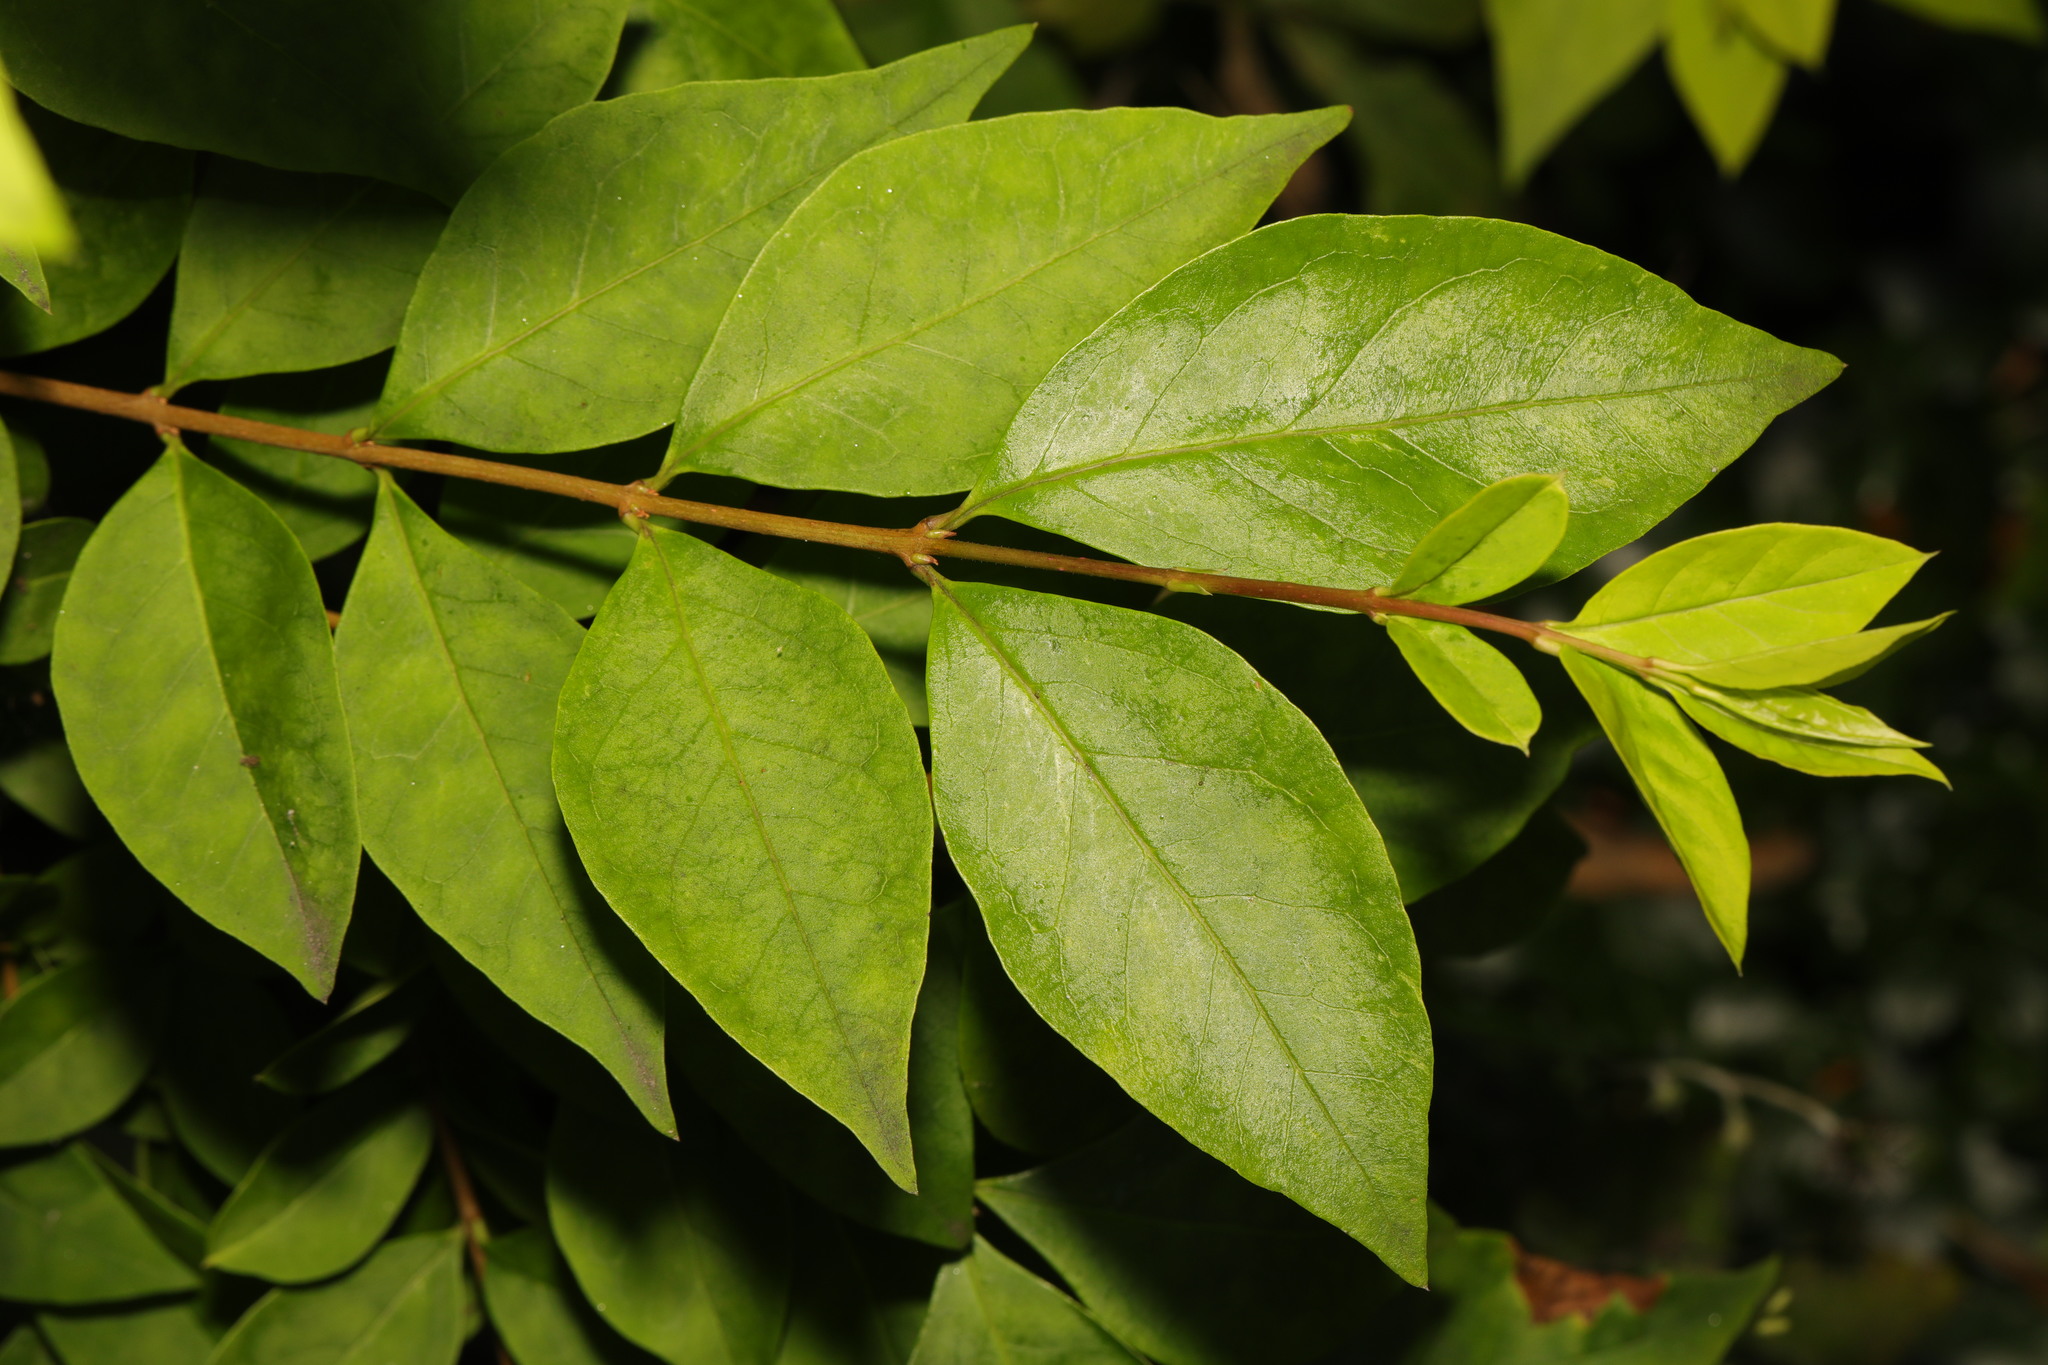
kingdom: Plantae
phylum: Tracheophyta
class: Magnoliopsida
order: Lamiales
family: Oleaceae
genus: Ligustrum
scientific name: Ligustrum ovalifolium
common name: California privet
